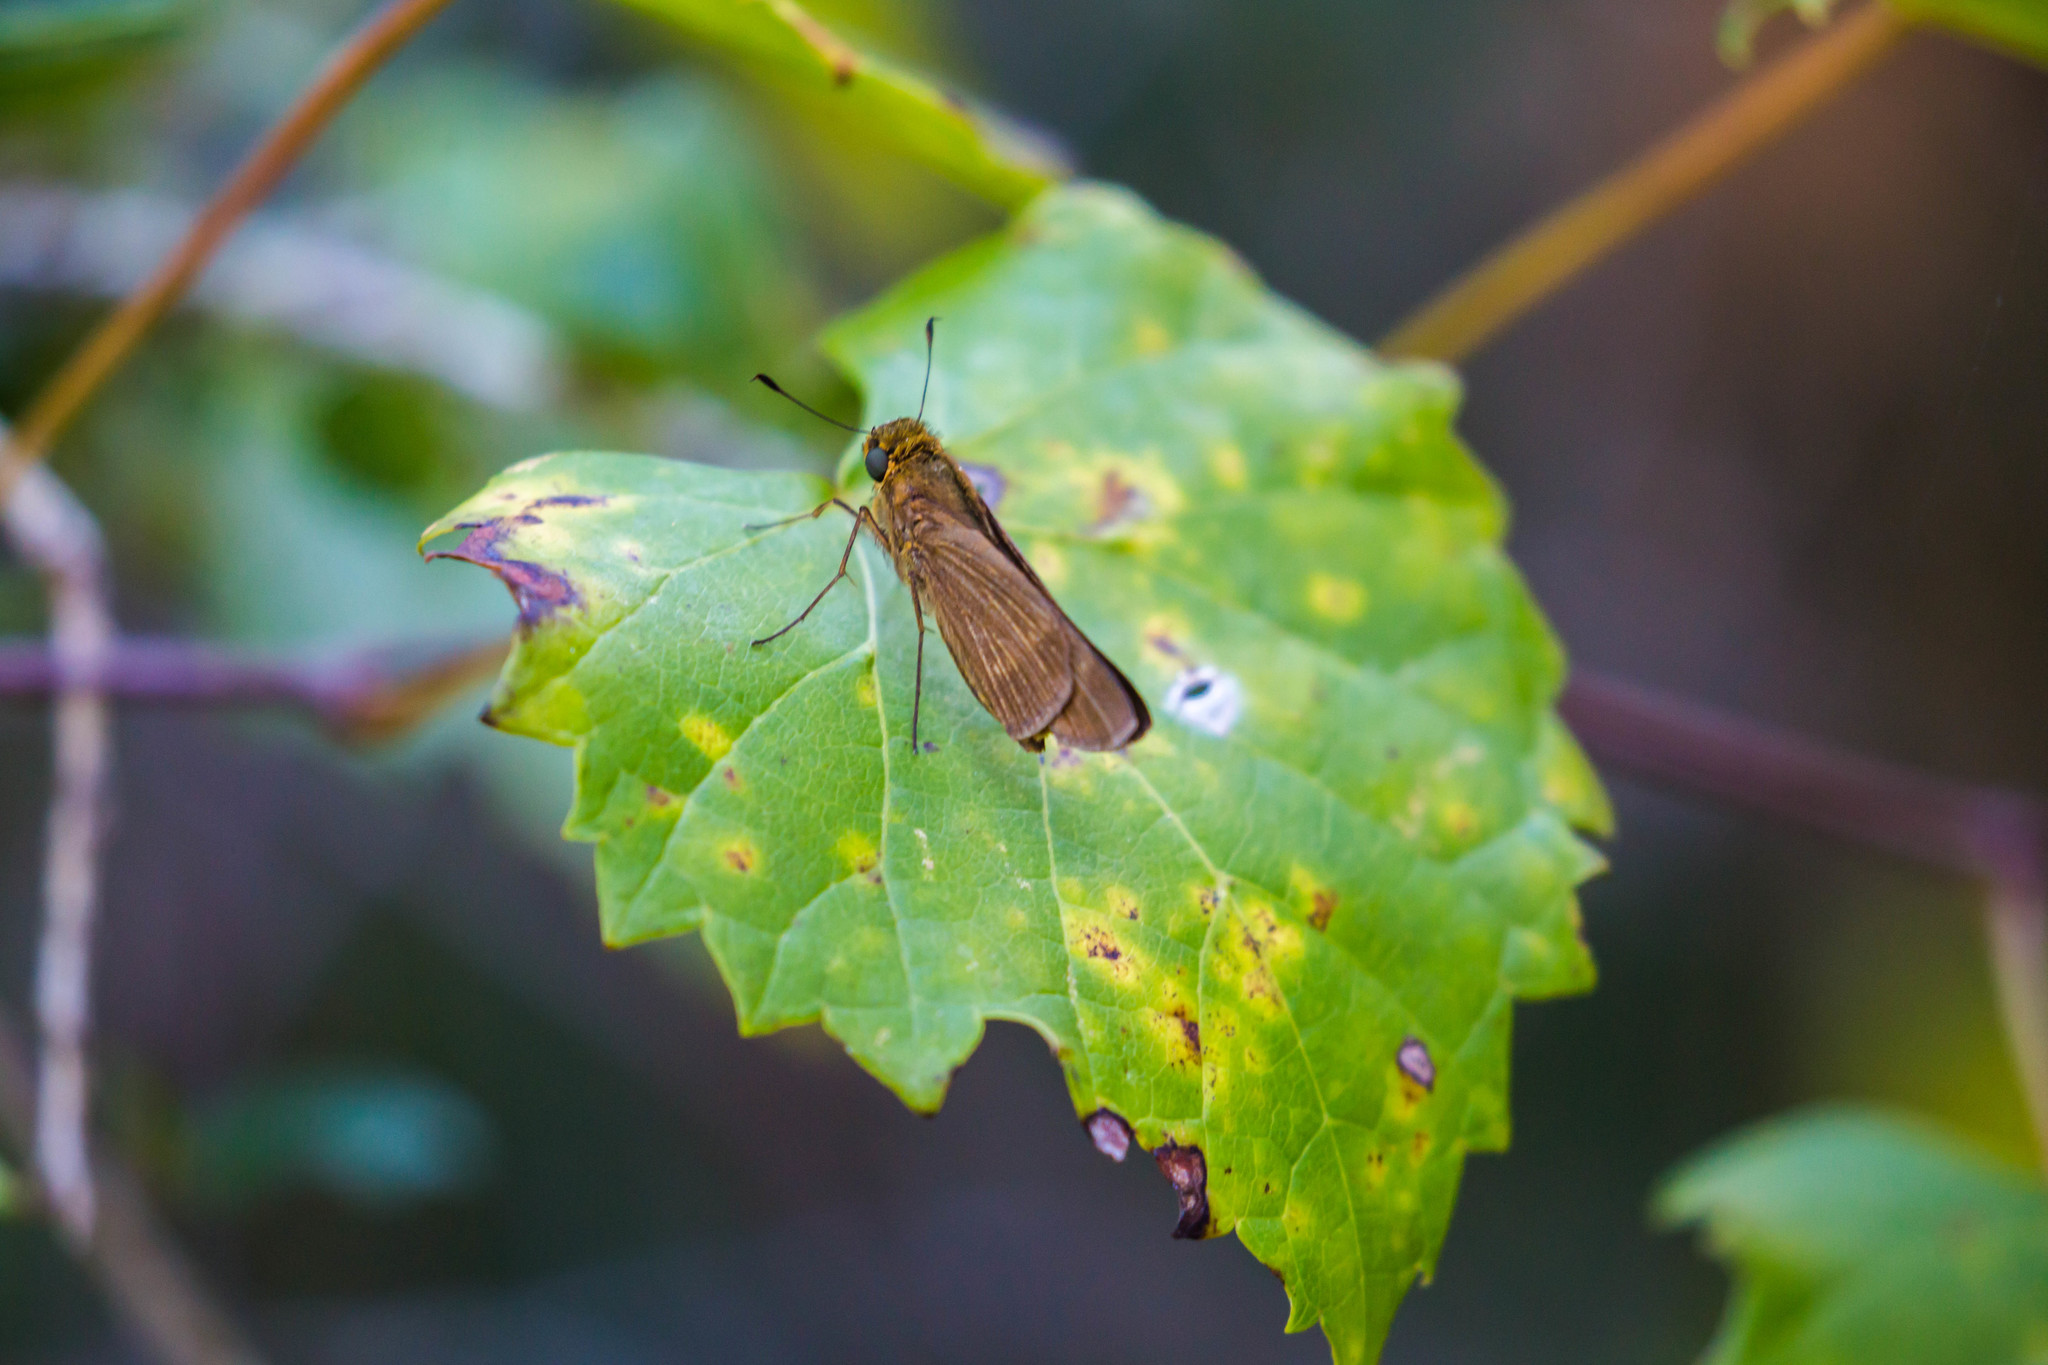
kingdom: Animalia
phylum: Arthropoda
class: Insecta
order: Lepidoptera
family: Hesperiidae
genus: Panoquina
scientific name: Panoquina ocola
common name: Ocola skipper
